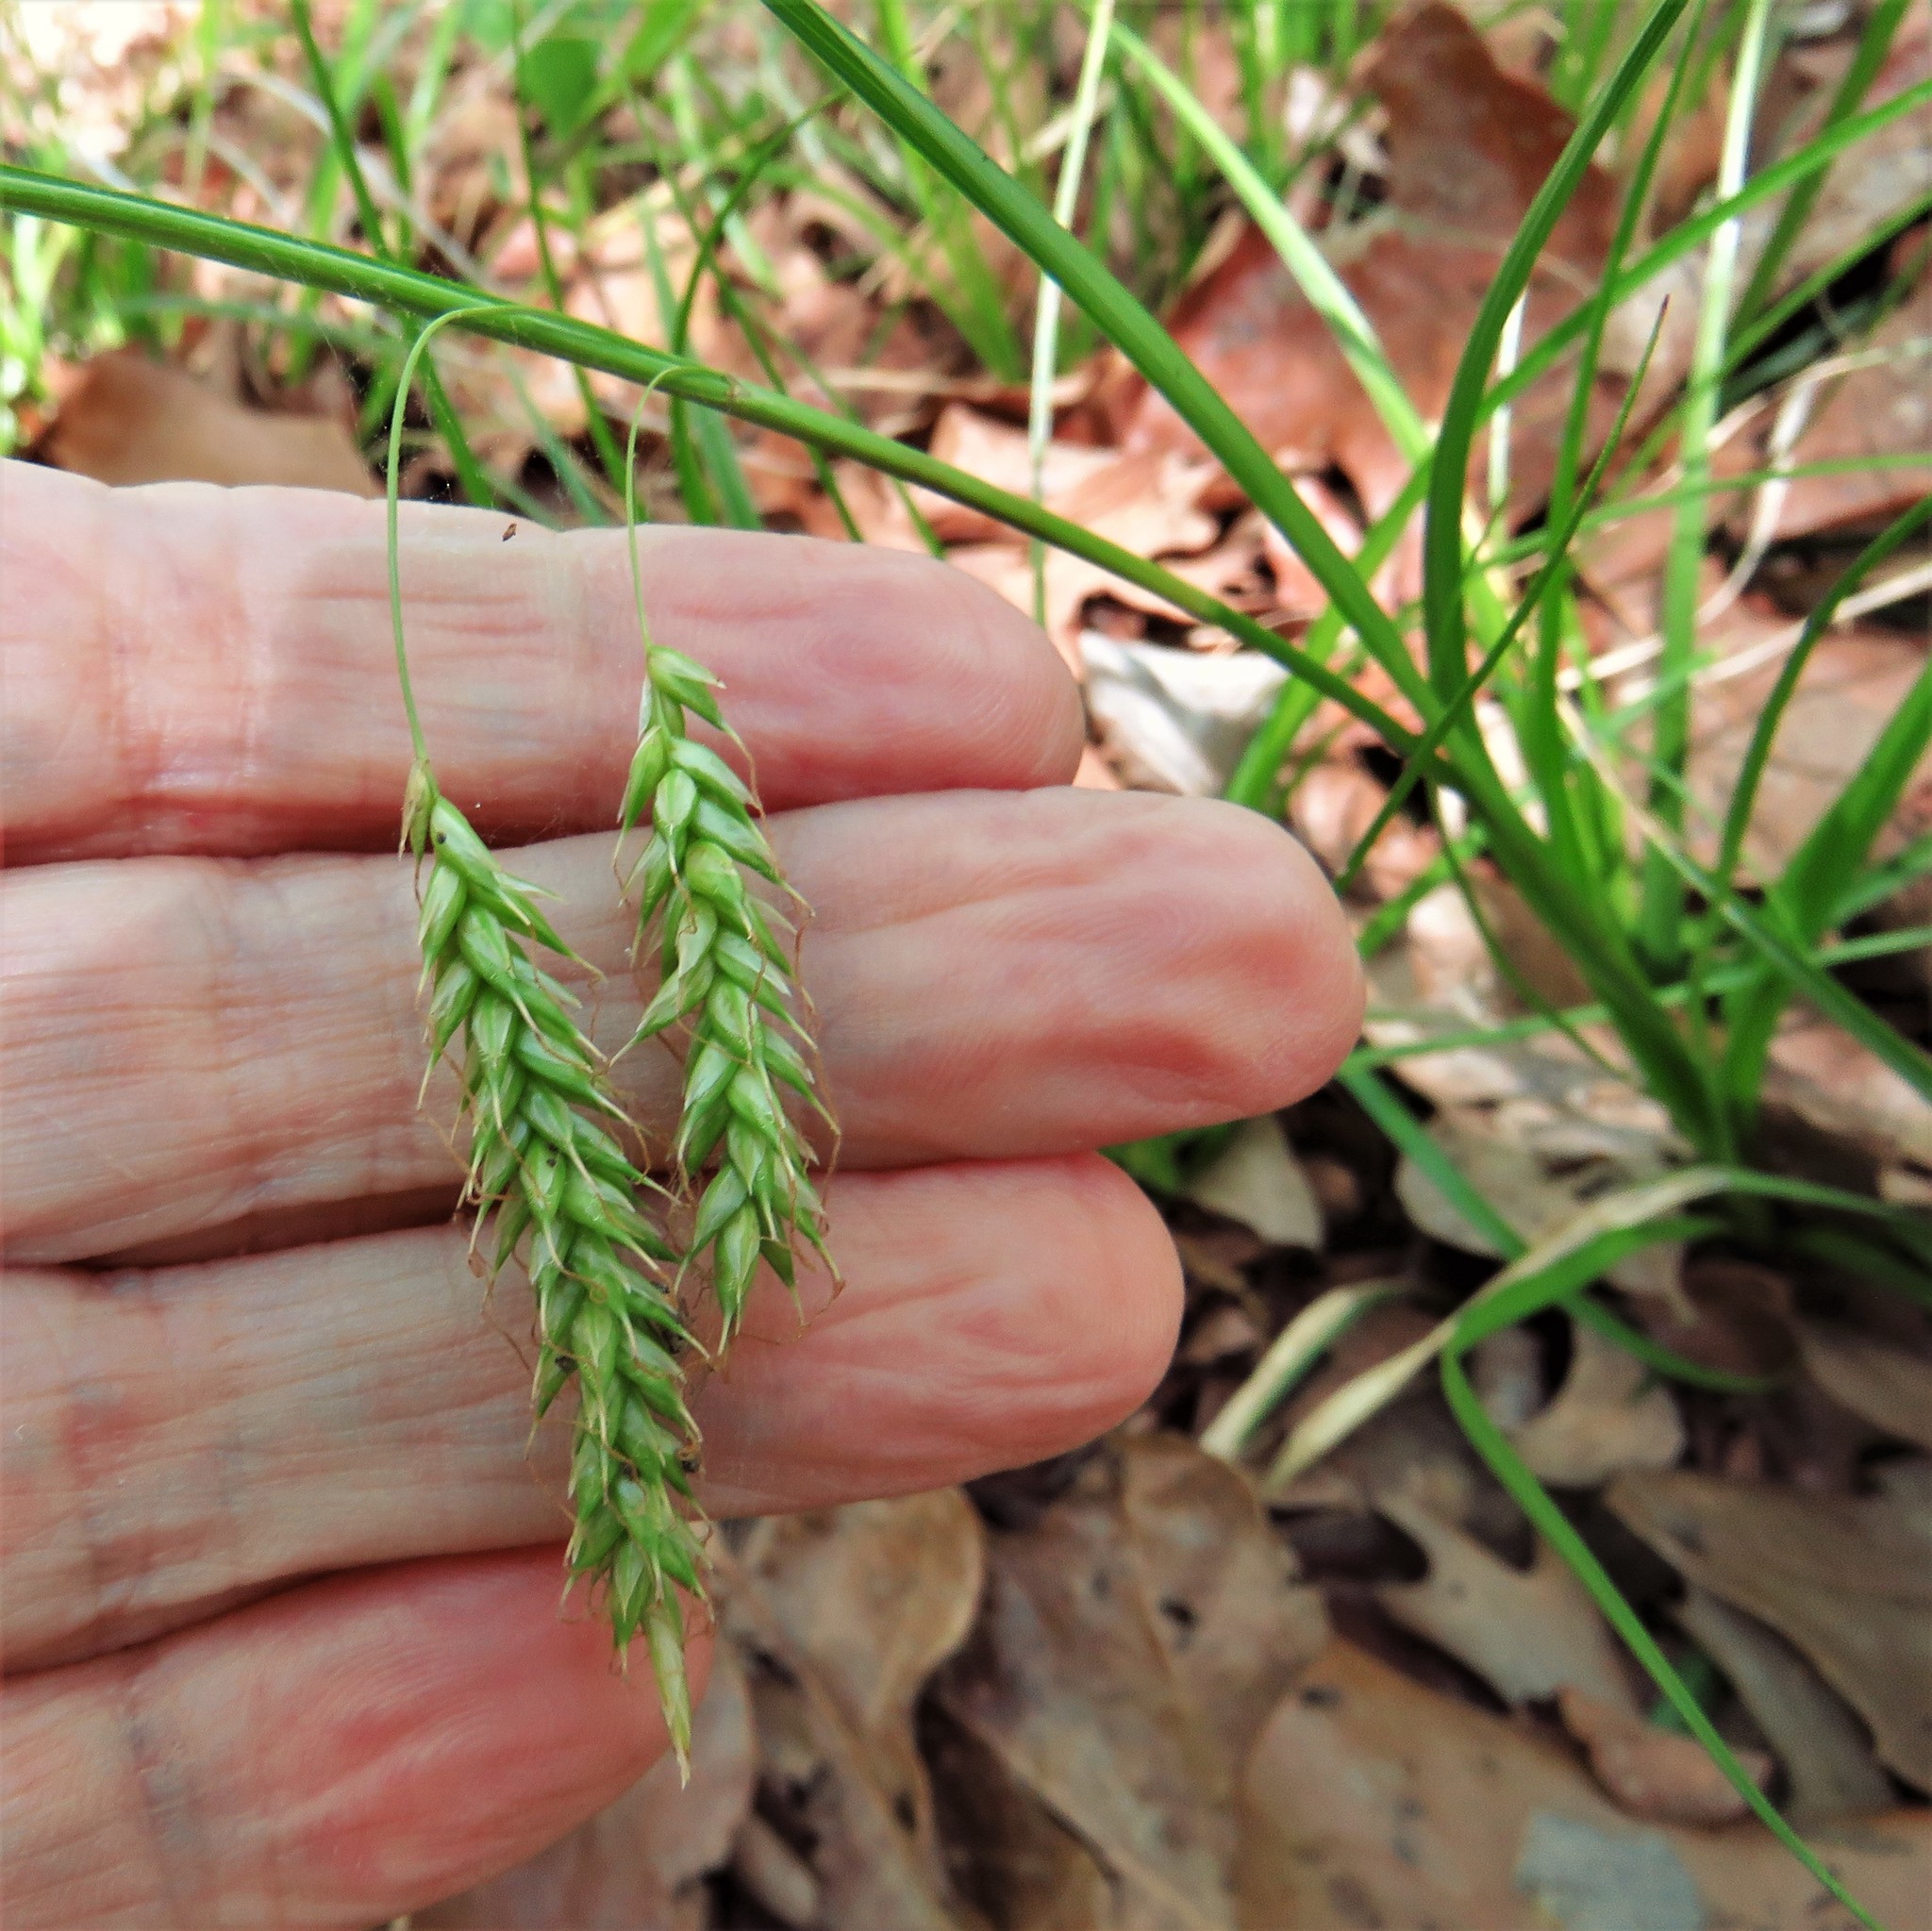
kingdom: Plantae
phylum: Tracheophyta
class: Liliopsida
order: Poales
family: Cyperaceae
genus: Carex
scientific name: Carex cherokeensis
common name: Cherokee sedge
